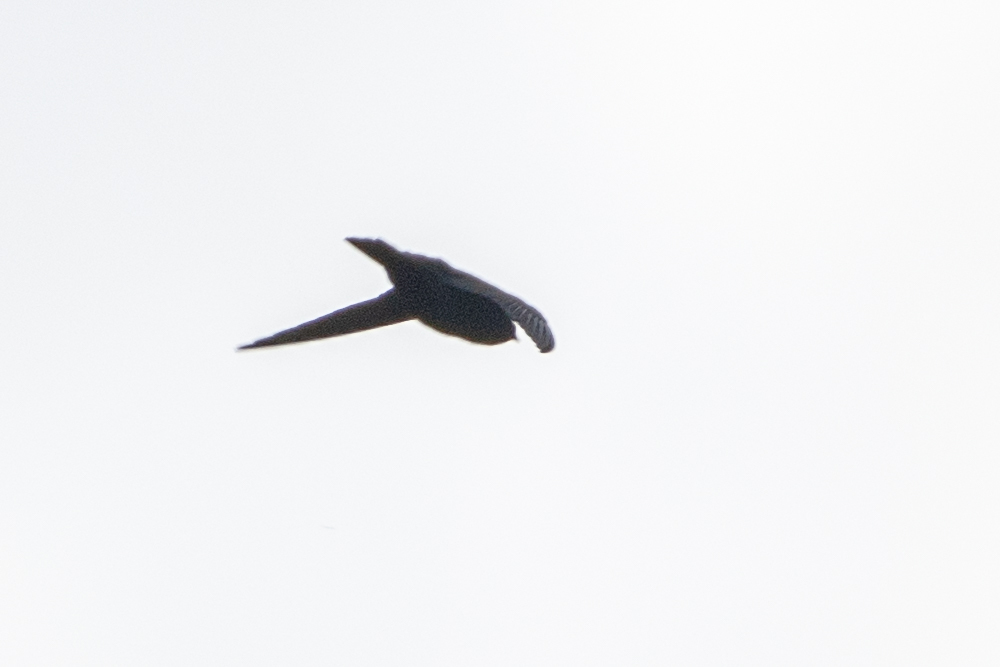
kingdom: Animalia
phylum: Chordata
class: Aves
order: Passeriformes
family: Hirundinidae
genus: Ptyonoprogne
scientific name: Ptyonoprogne rupestris
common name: Eurasian crag martin
